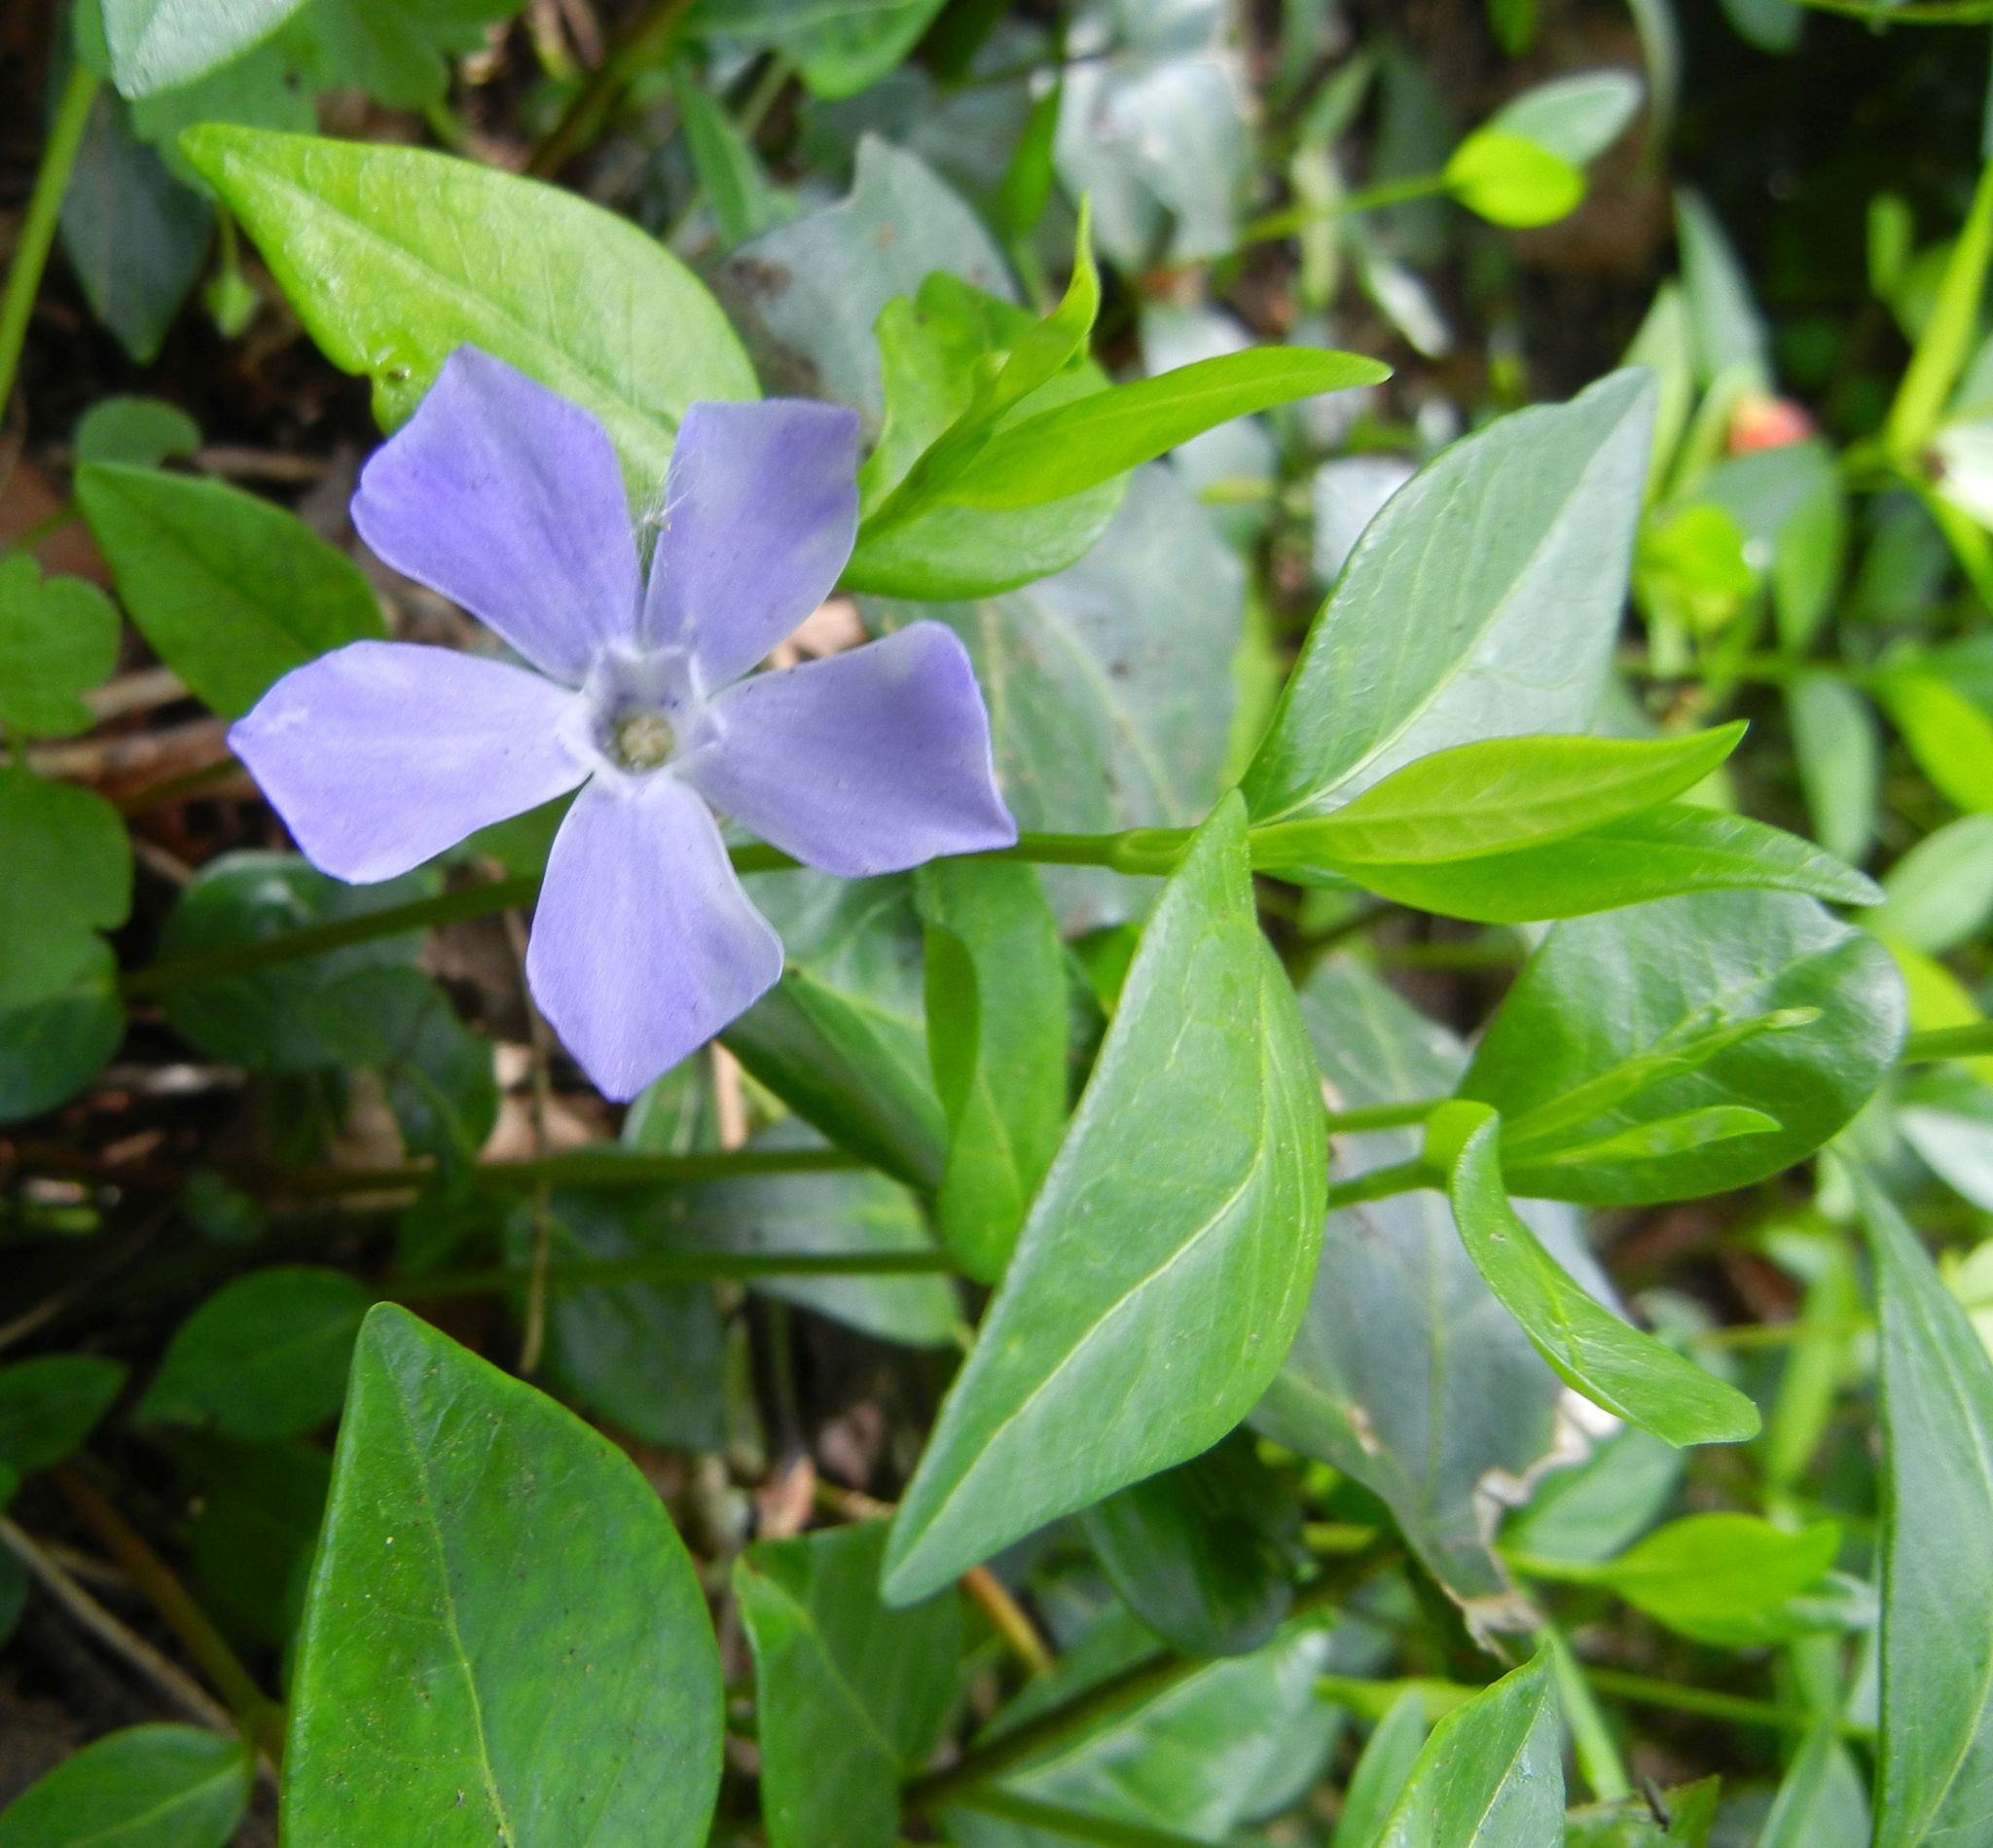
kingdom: Plantae
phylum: Tracheophyta
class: Magnoliopsida
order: Gentianales
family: Apocynaceae
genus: Vinca
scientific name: Vinca minor
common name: Lesser periwinkle
